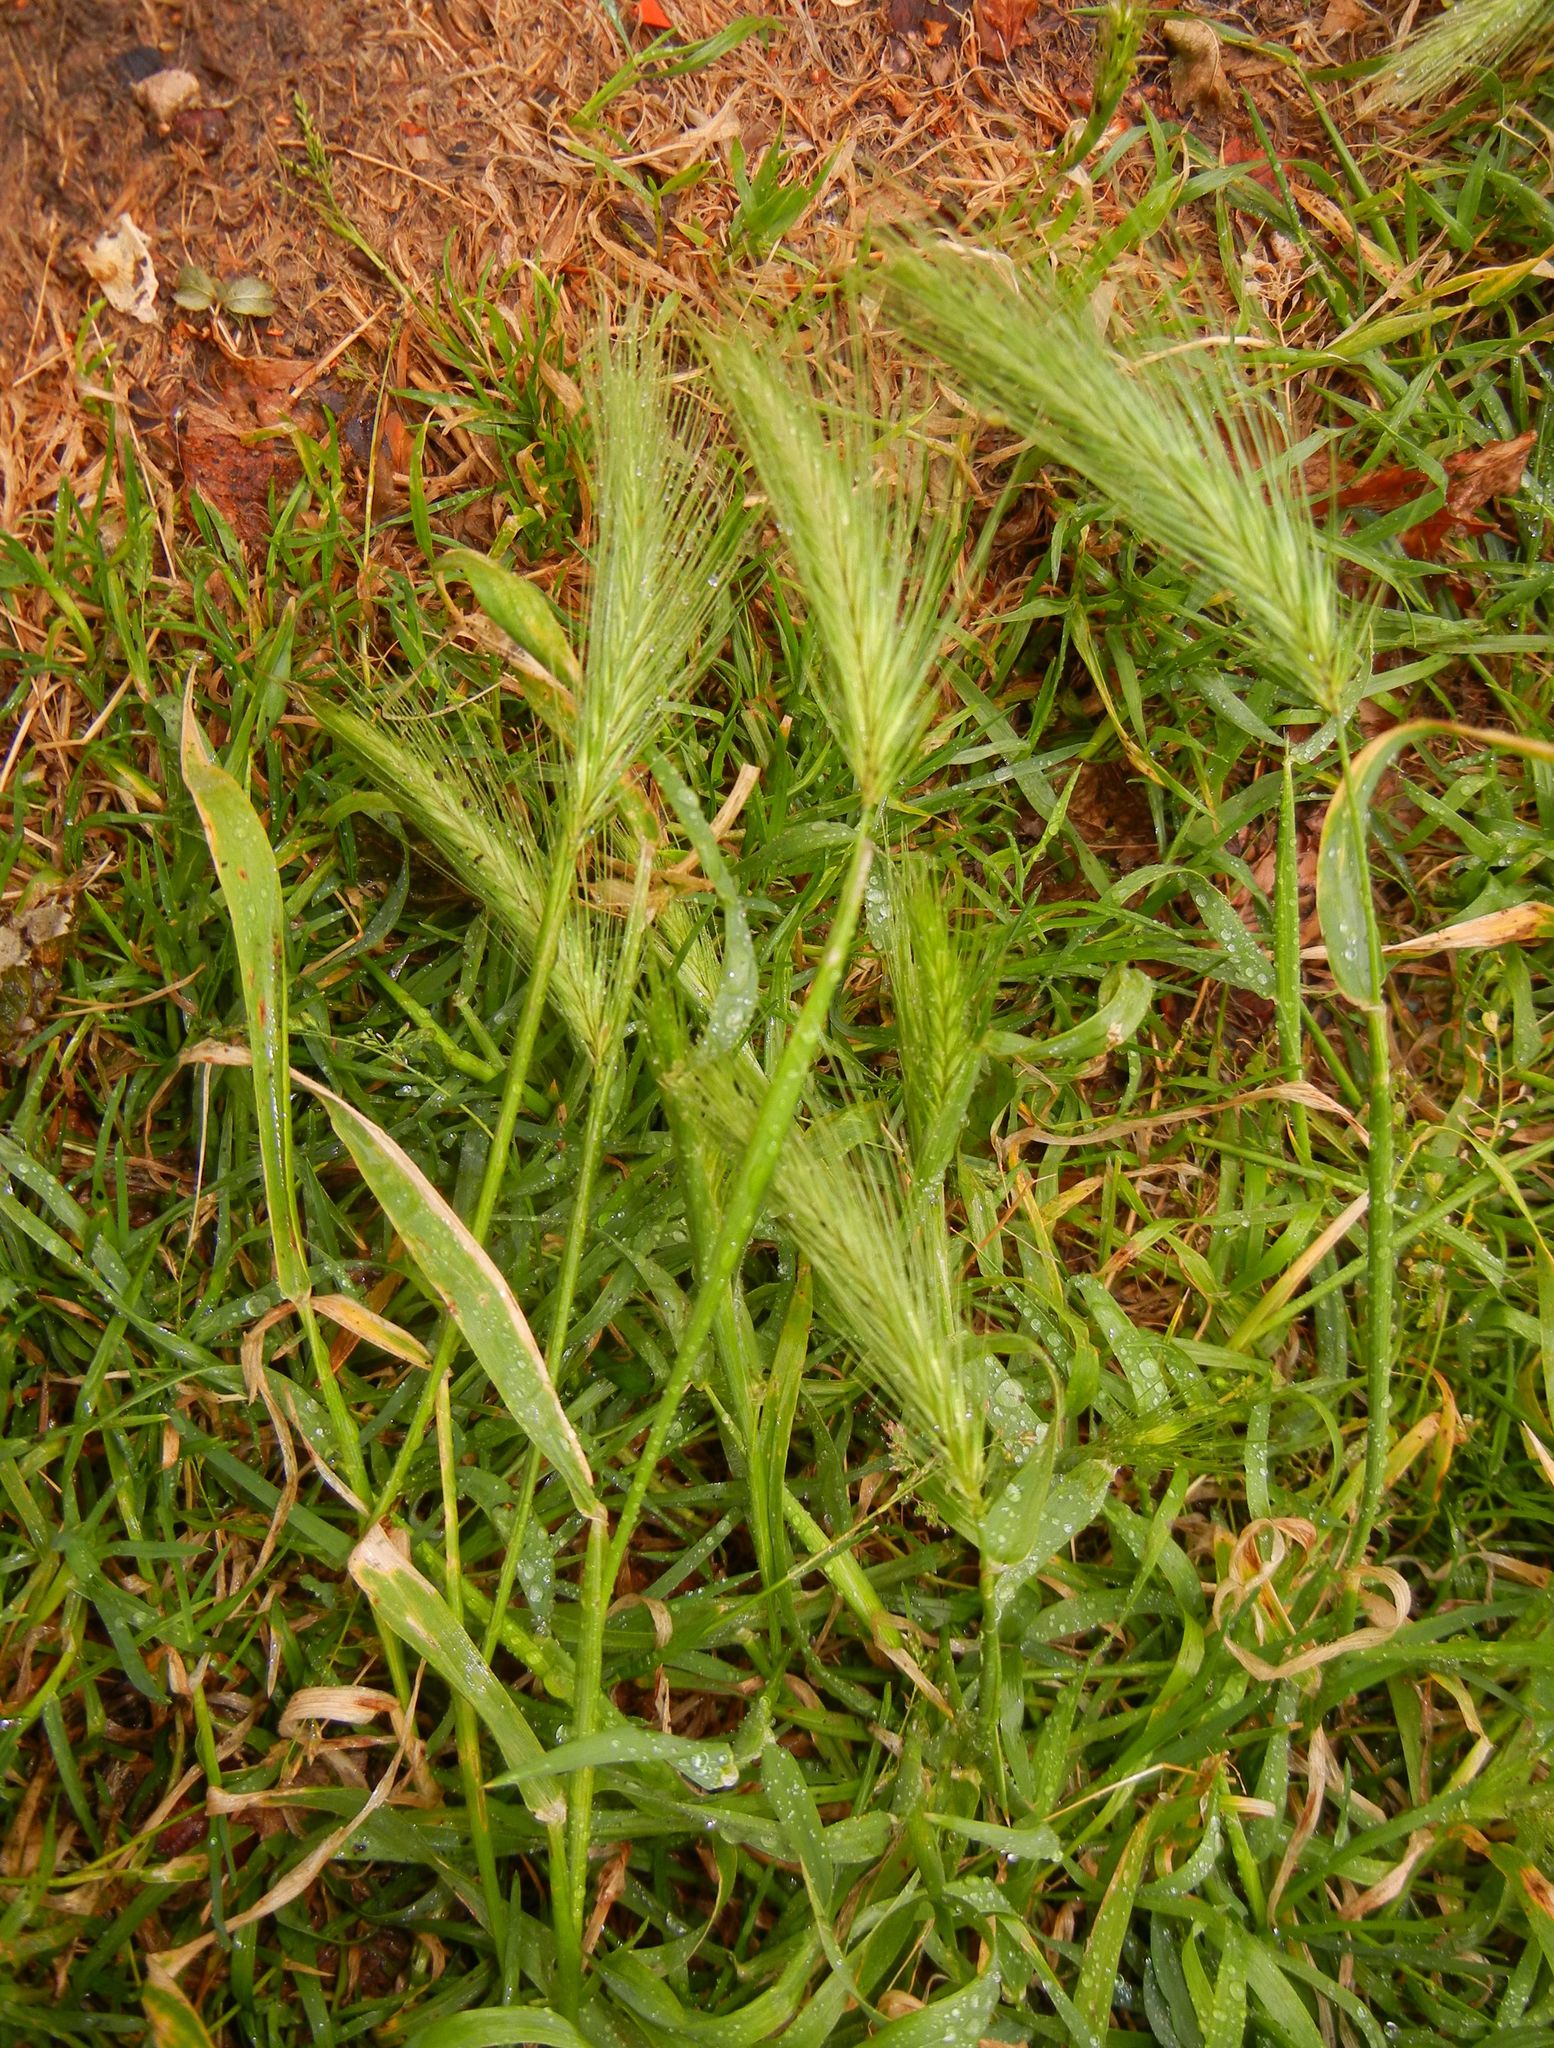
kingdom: Plantae
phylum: Tracheophyta
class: Liliopsida
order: Poales
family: Poaceae
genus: Hordeum
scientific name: Hordeum murinum
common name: Wall barley
